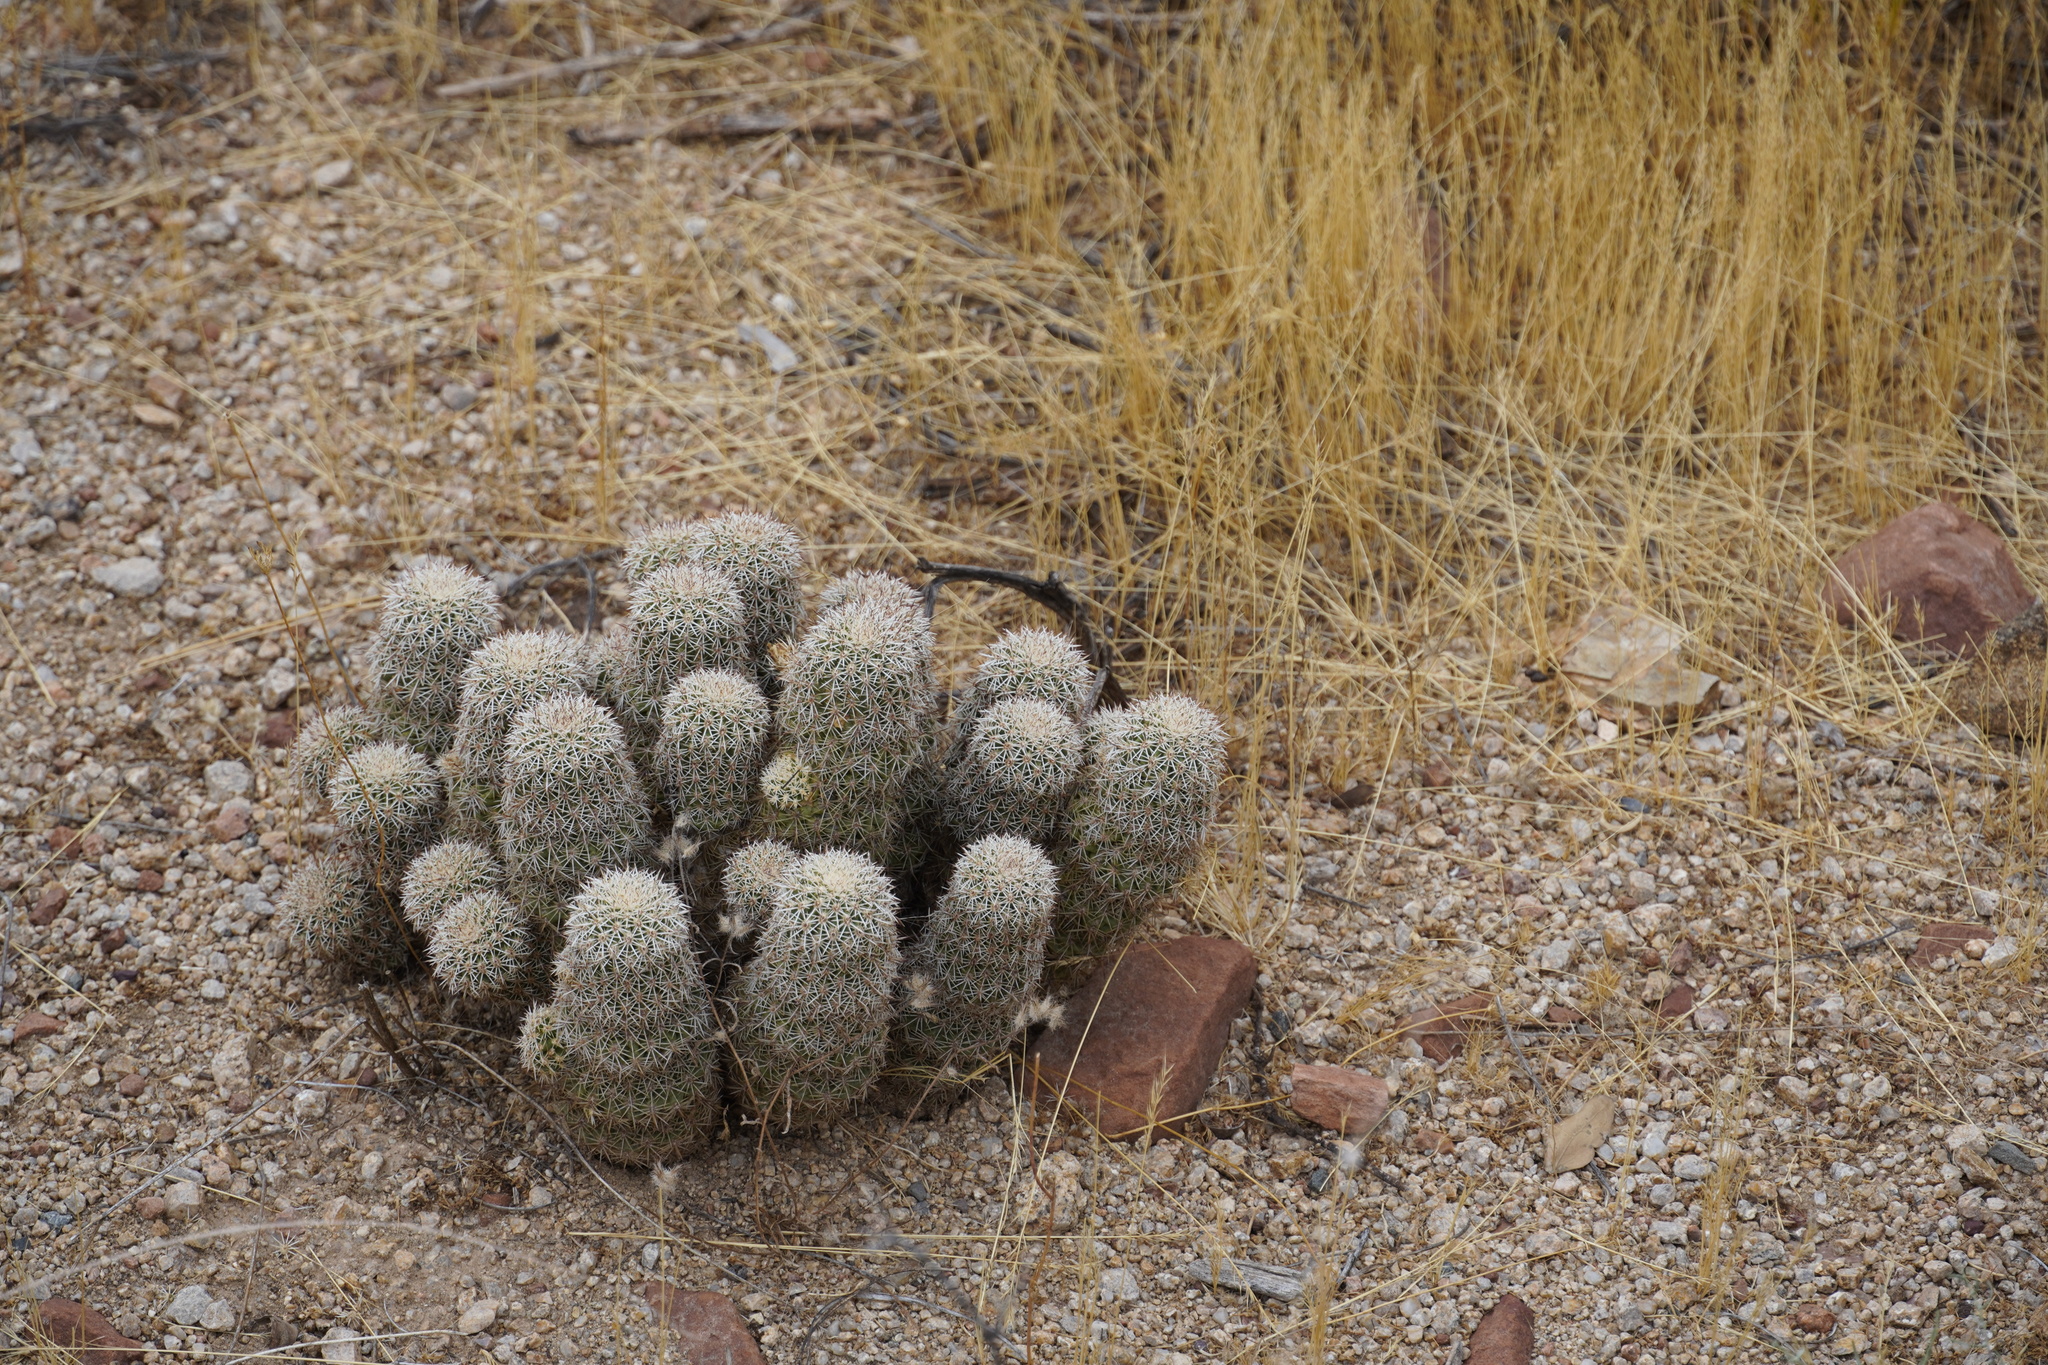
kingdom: Plantae
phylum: Tracheophyta
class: Magnoliopsida
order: Caryophyllales
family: Cactaceae
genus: Echinocereus
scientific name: Echinocereus bonkerae
